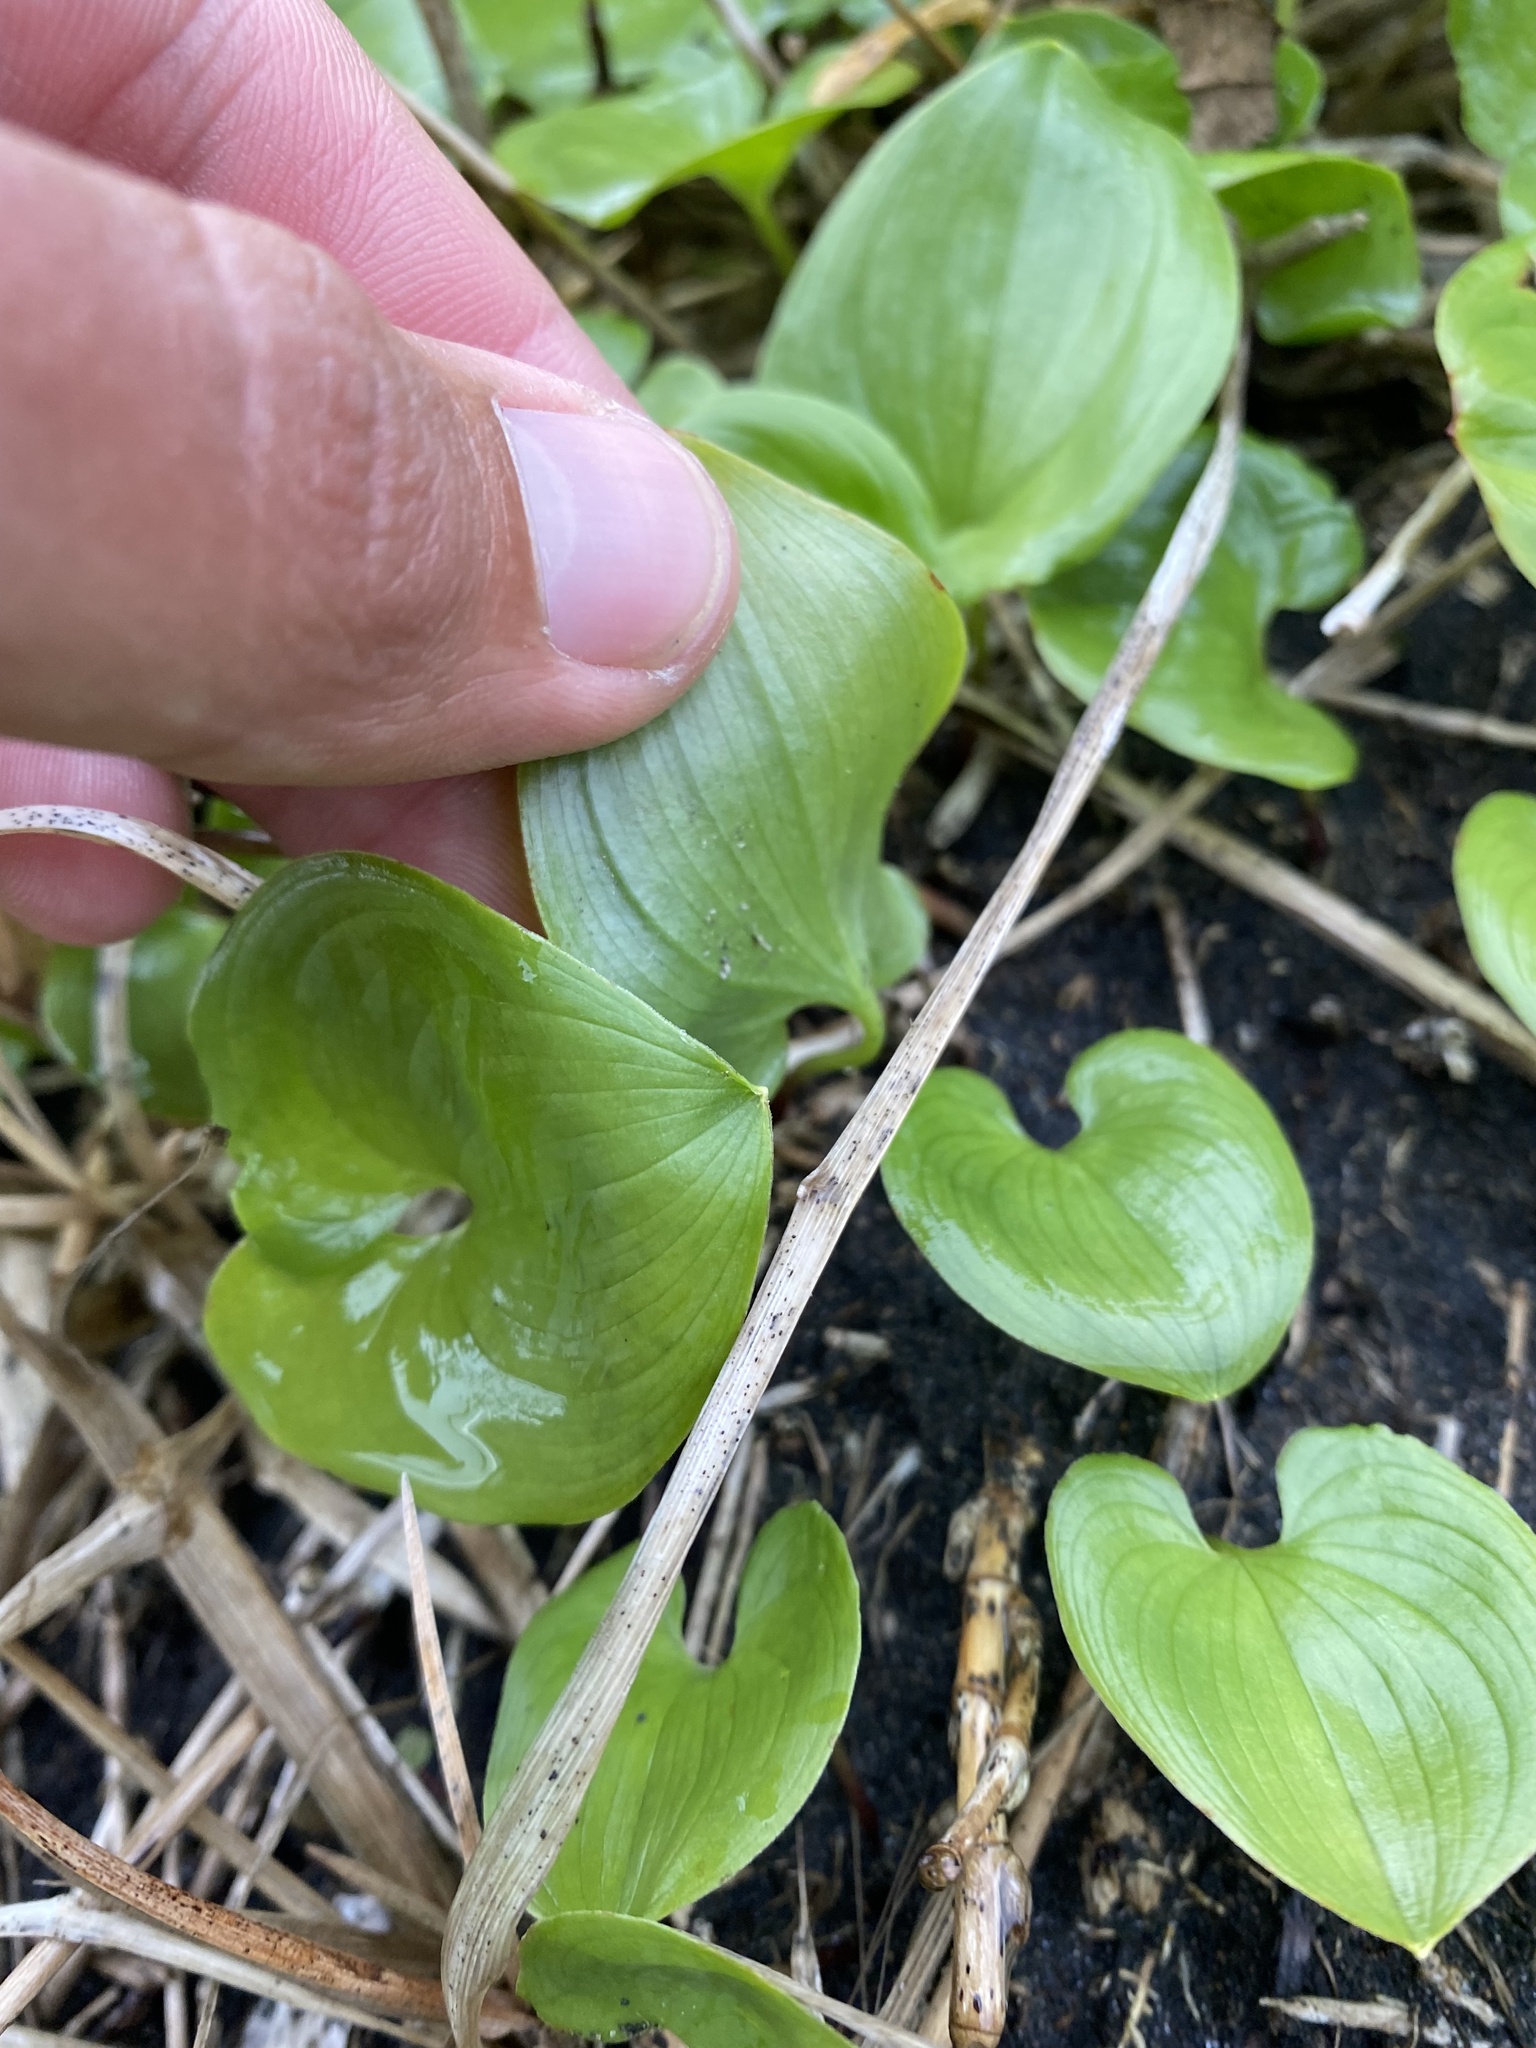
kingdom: Plantae
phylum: Tracheophyta
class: Liliopsida
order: Asparagales
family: Asparagaceae
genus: Maianthemum
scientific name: Maianthemum dilatatum
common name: False lily-of-the-valley
